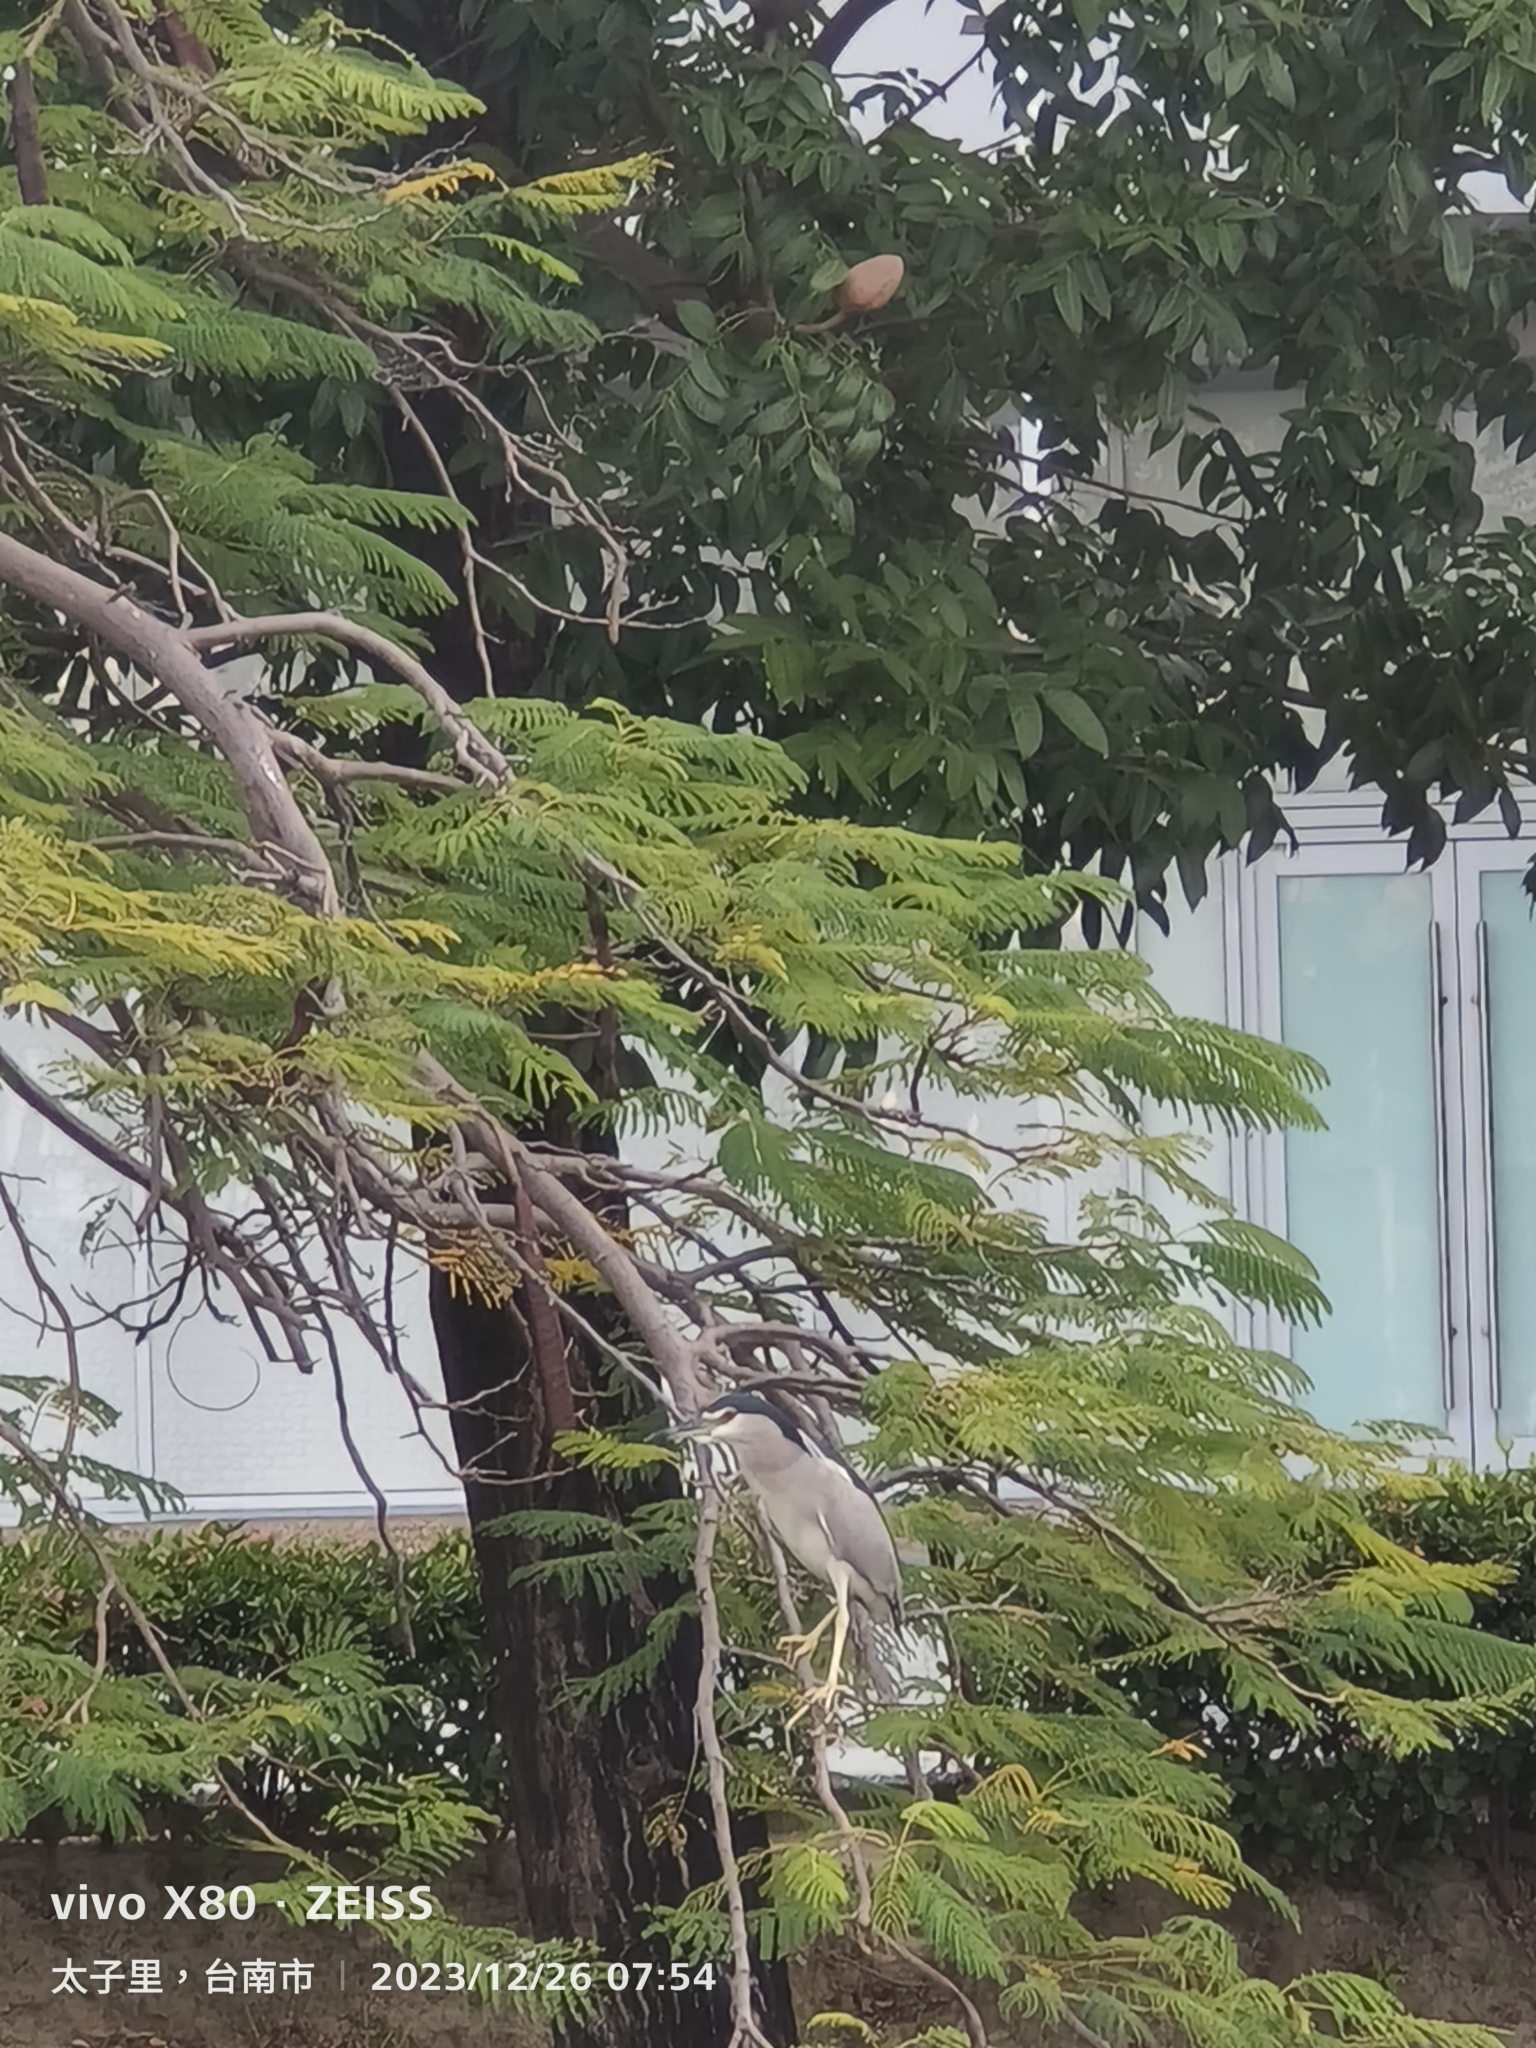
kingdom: Animalia
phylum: Chordata
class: Aves
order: Pelecaniformes
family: Ardeidae
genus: Nycticorax
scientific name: Nycticorax nycticorax
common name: Black-crowned night heron
